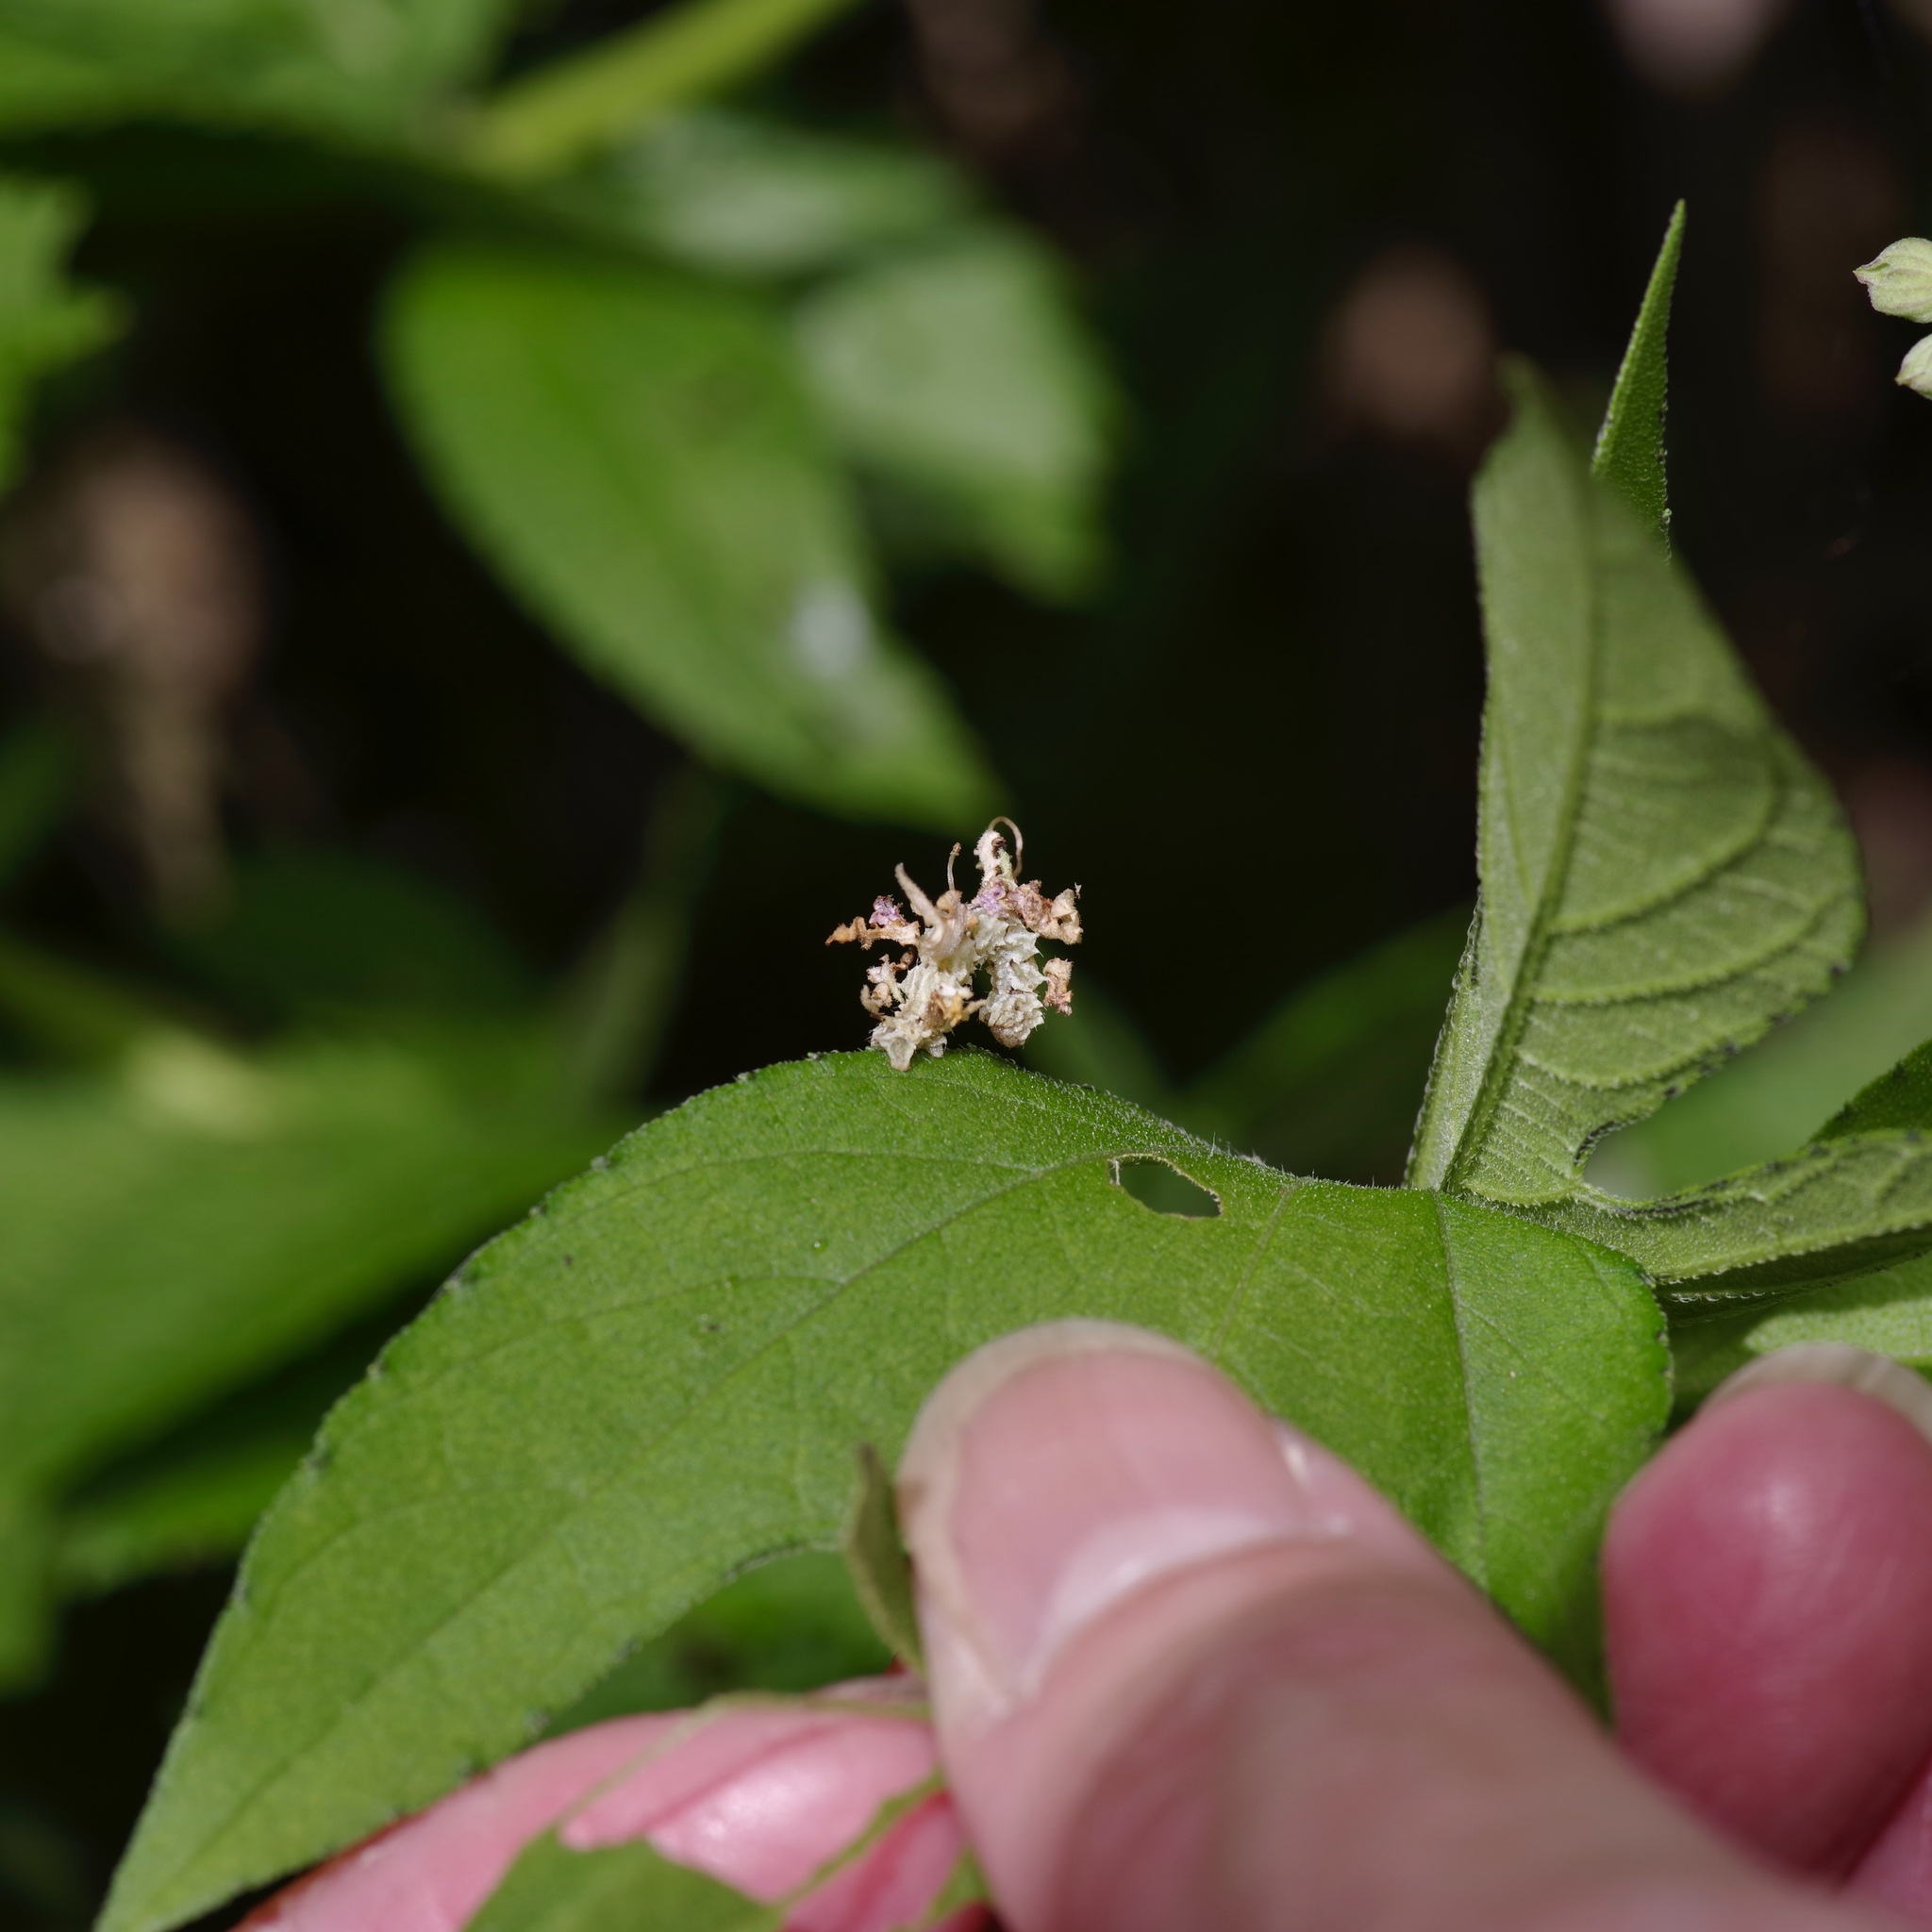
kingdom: Animalia
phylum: Arthropoda
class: Insecta
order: Lepidoptera
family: Geometridae
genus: Synchlora
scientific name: Synchlora
